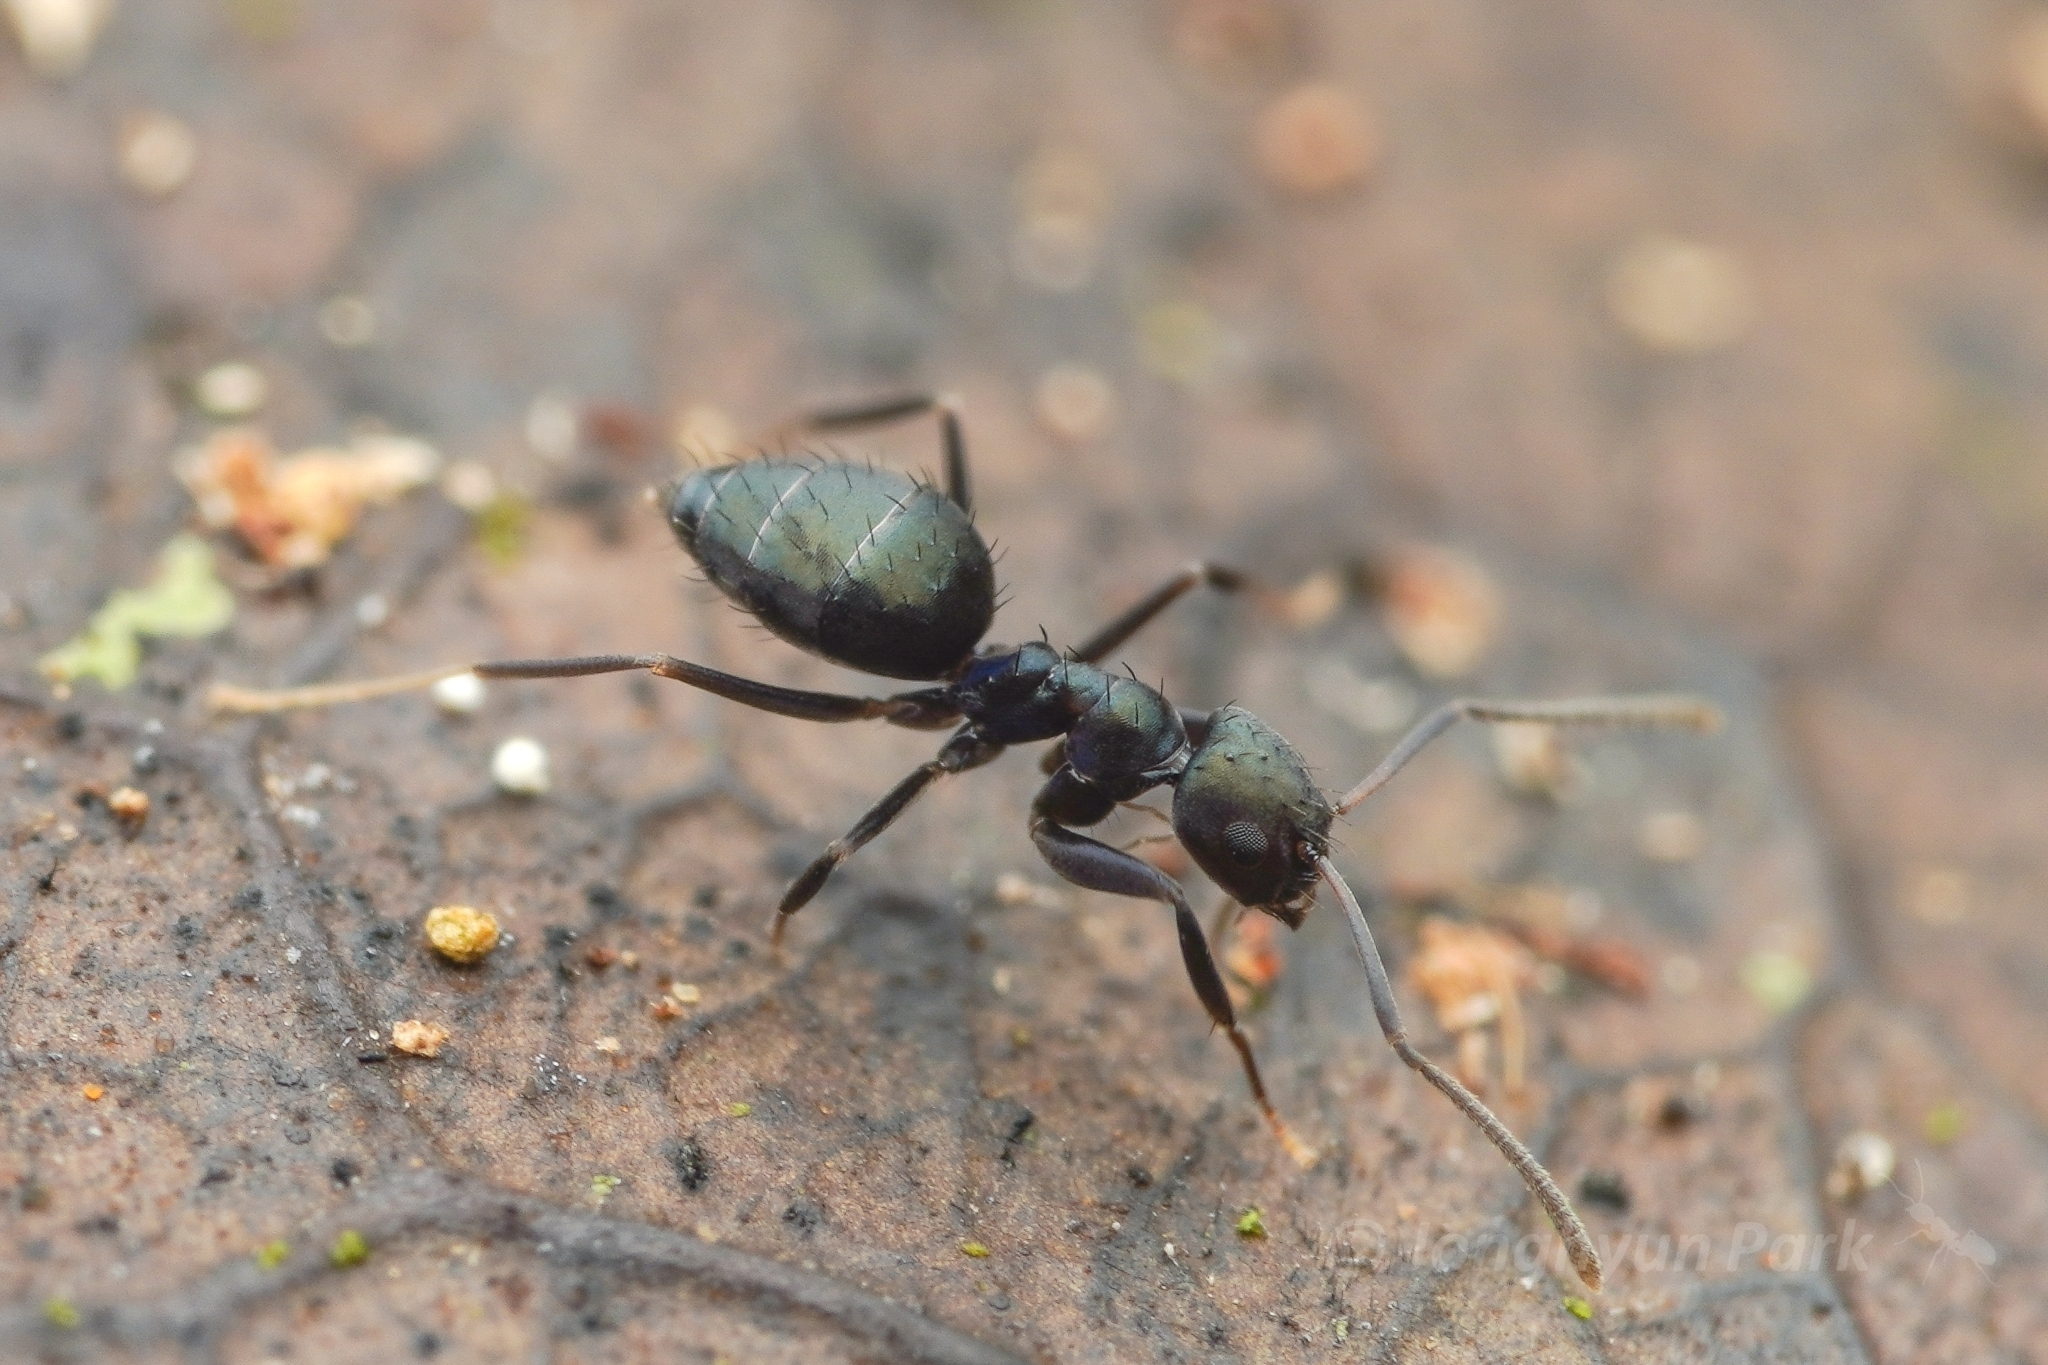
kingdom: Animalia
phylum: Arthropoda
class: Insecta
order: Hymenoptera
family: Formicidae
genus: Paraparatrechina
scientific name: Paraparatrechina opaca
